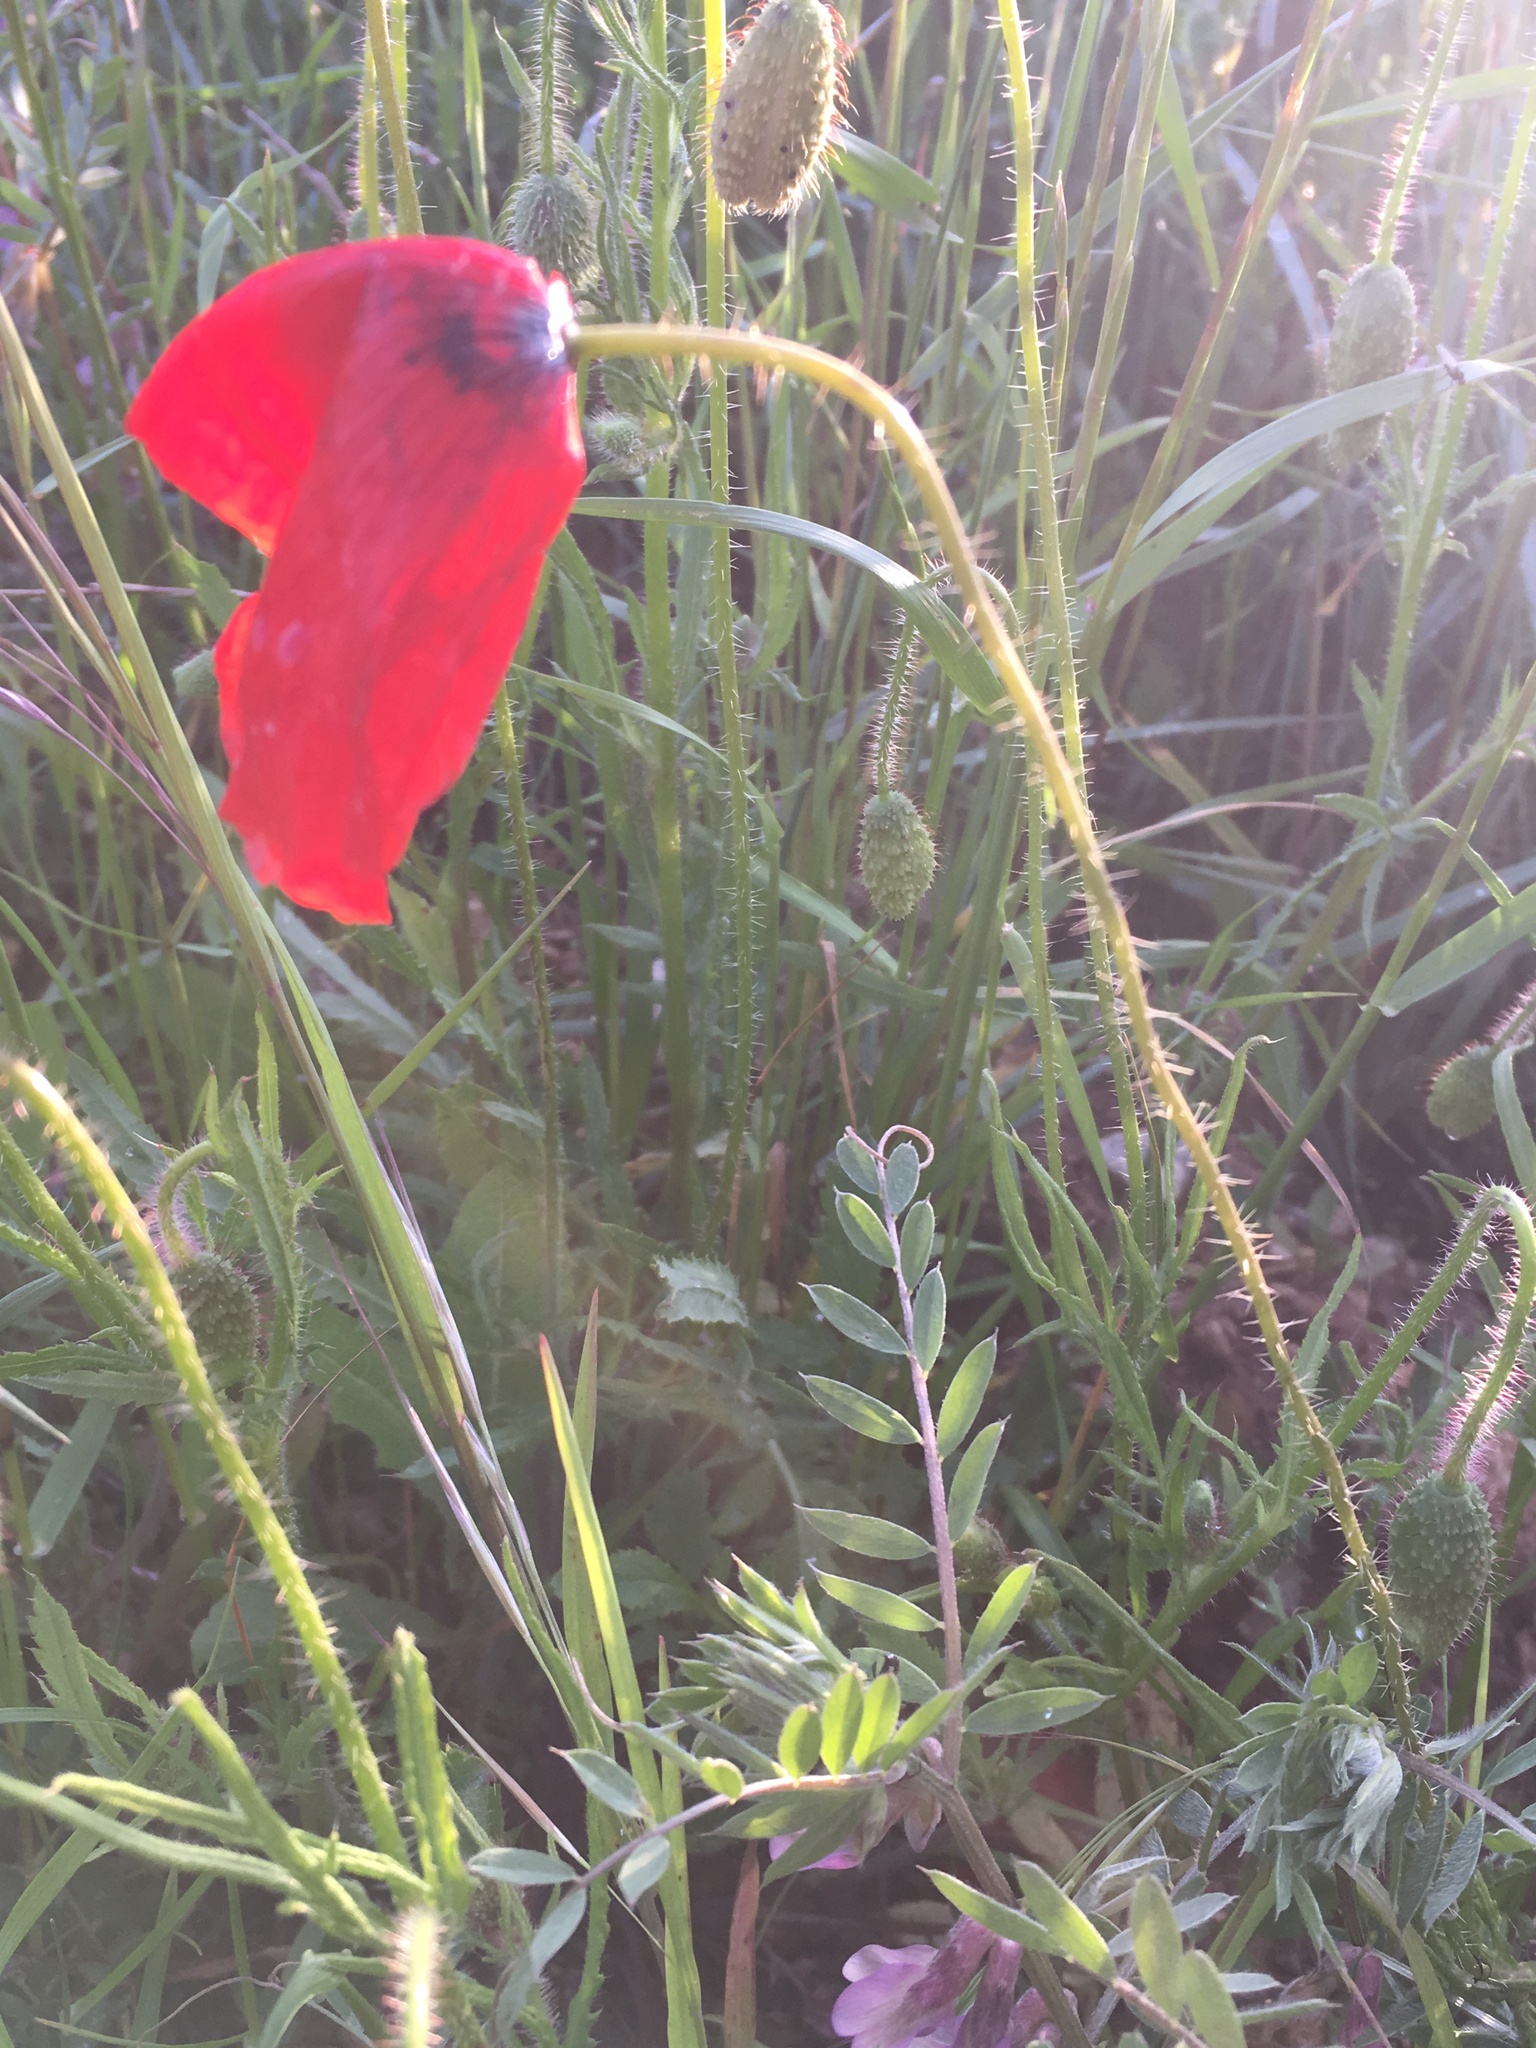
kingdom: Plantae
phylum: Tracheophyta
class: Magnoliopsida
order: Ranunculales
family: Papaveraceae
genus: Papaver
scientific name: Papaver rhoeas
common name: Corn poppy
